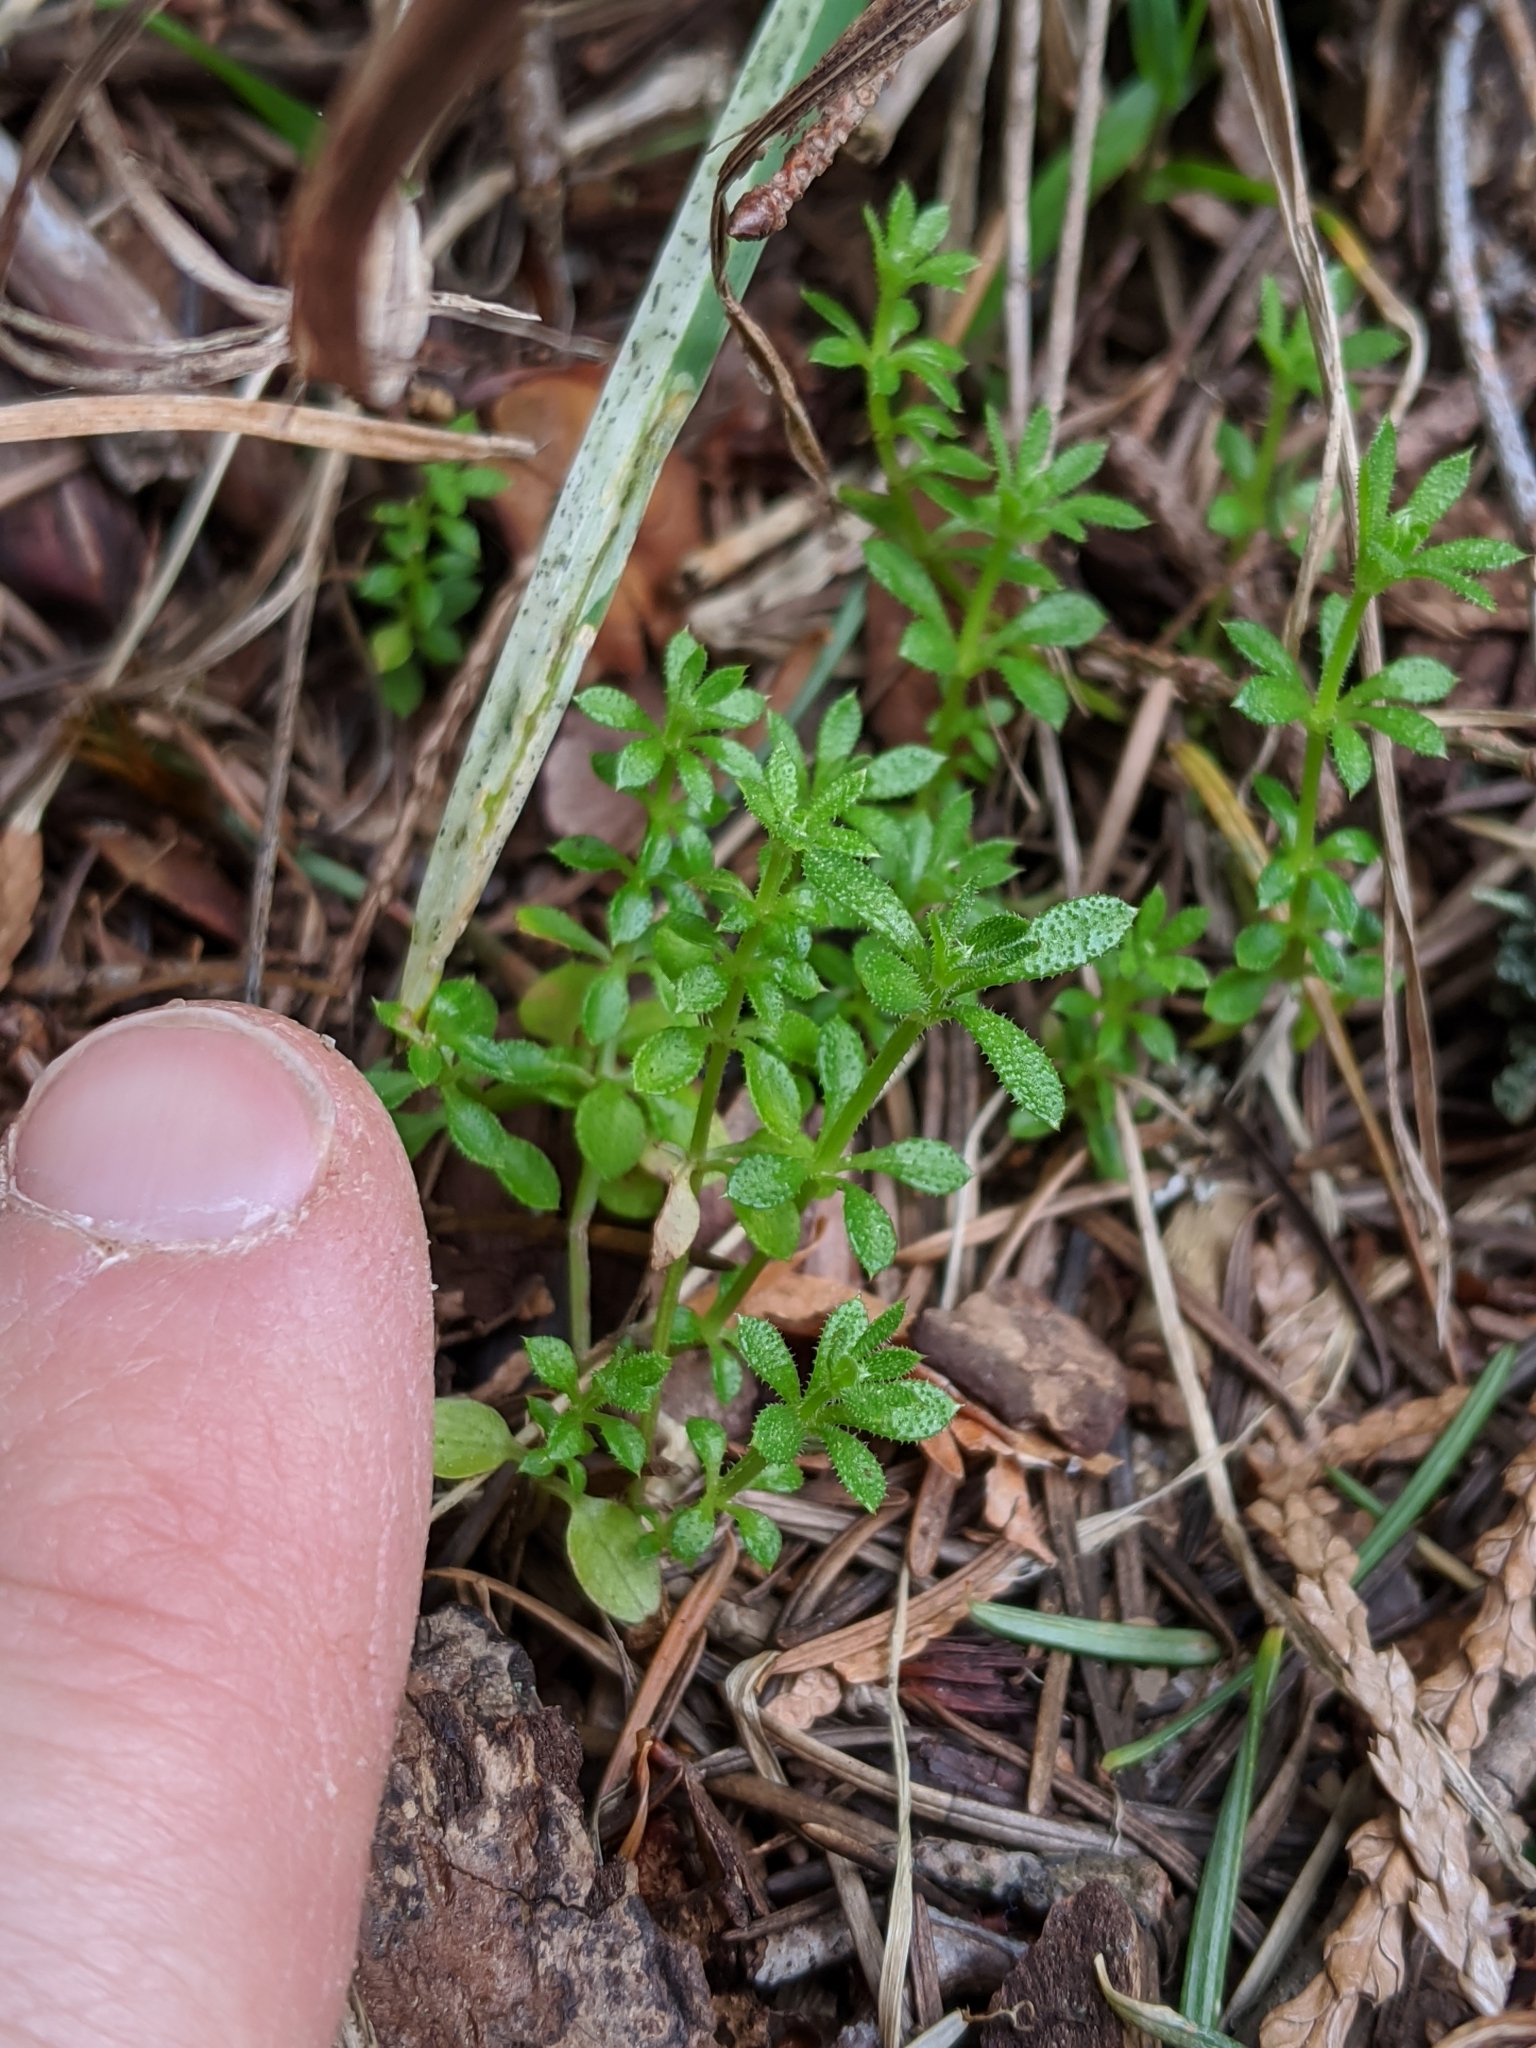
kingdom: Plantae
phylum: Tracheophyta
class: Magnoliopsida
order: Gentianales
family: Rubiaceae
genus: Galium
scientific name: Galium aparine
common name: Cleavers
